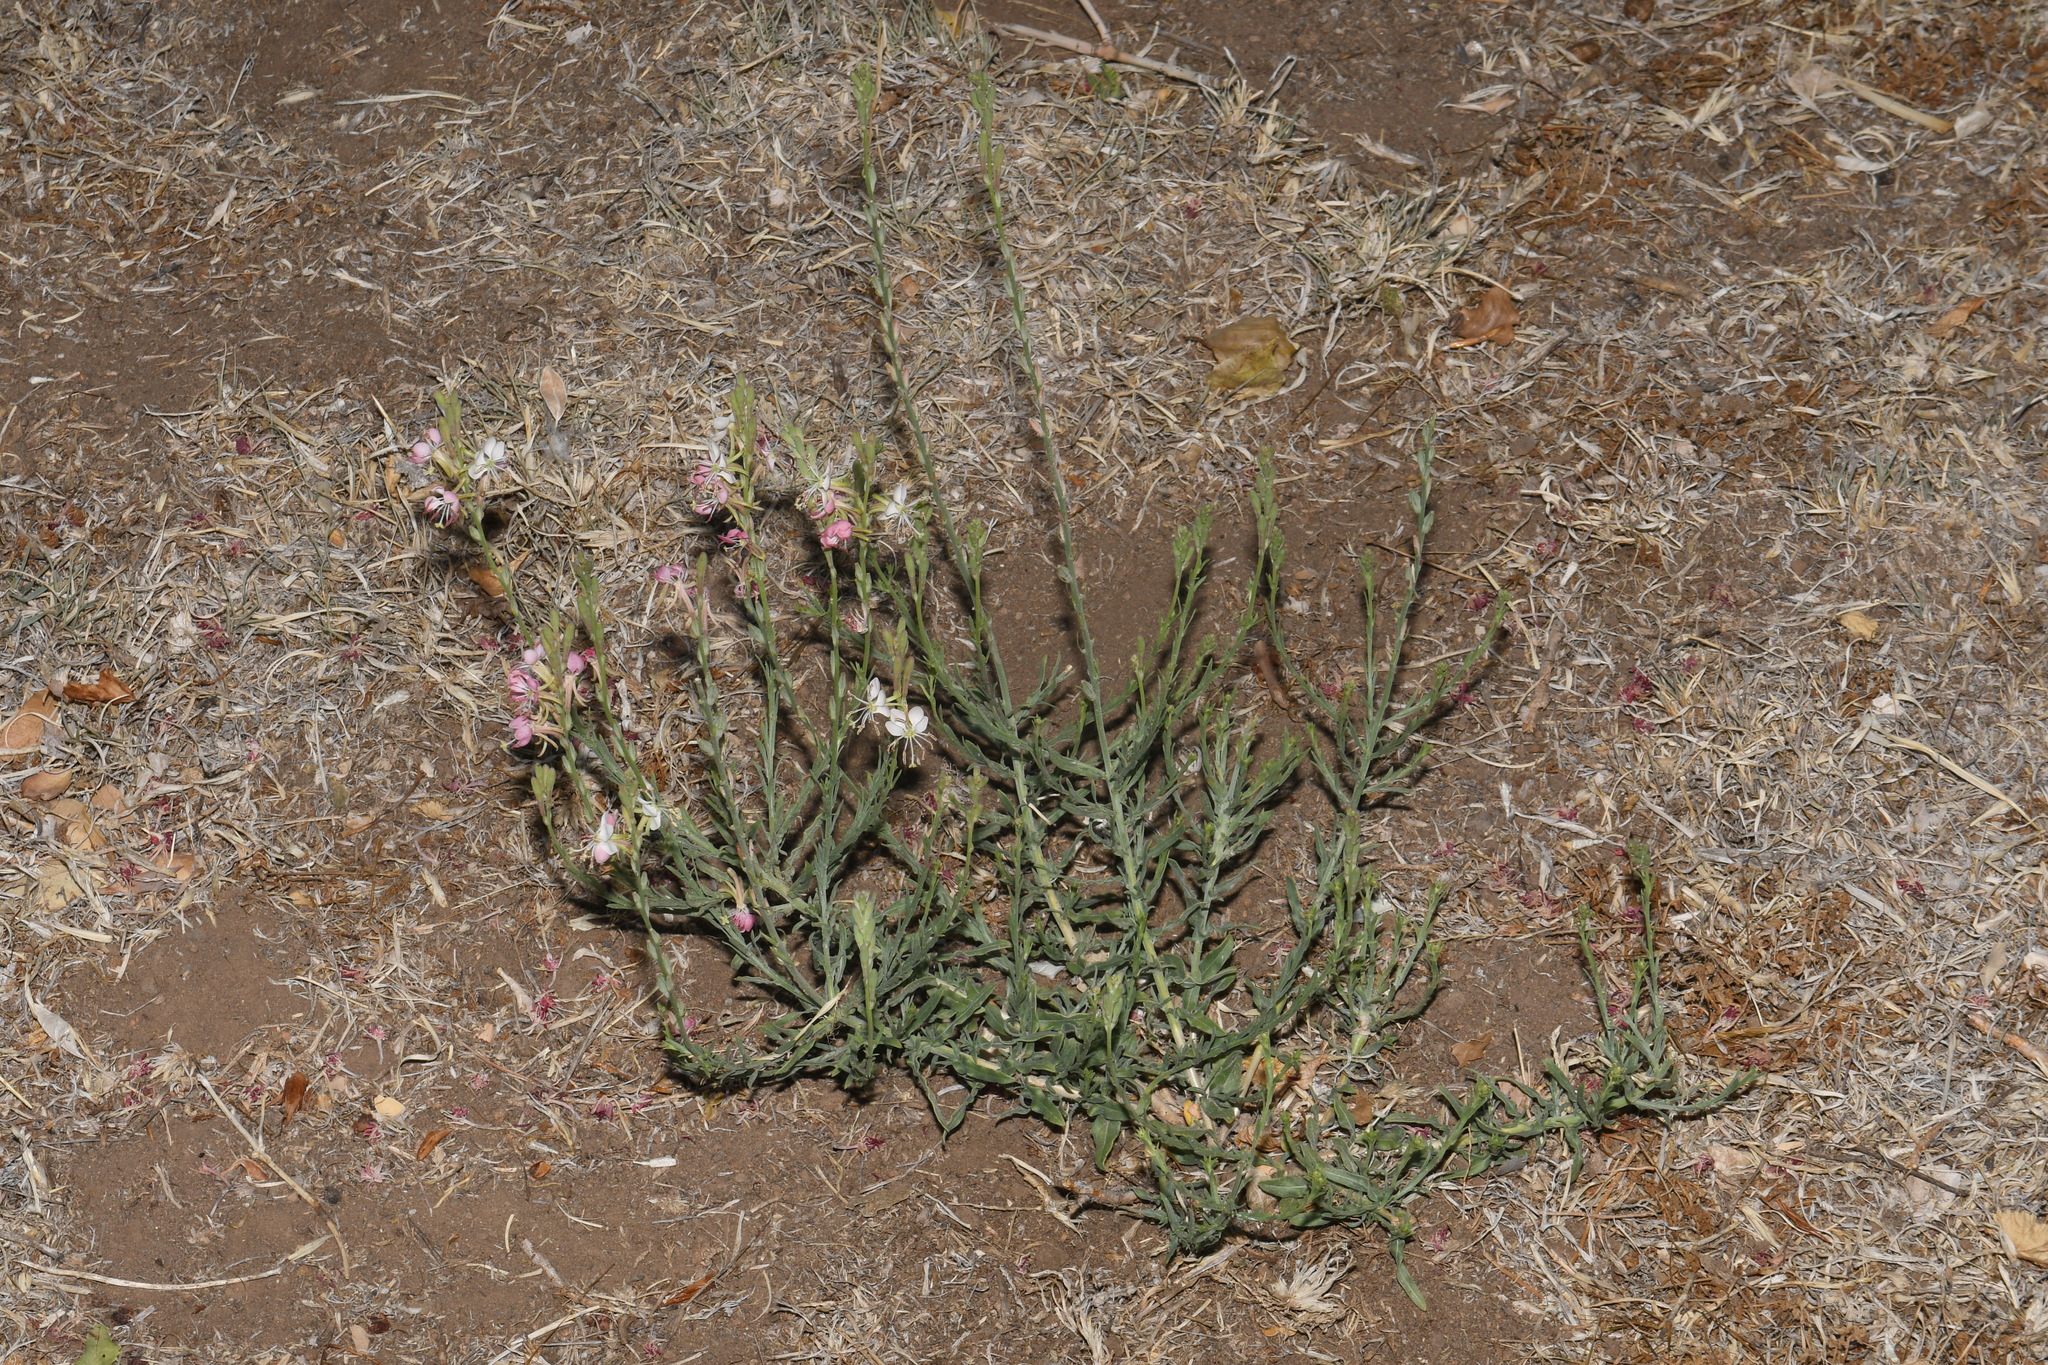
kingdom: Plantae
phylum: Tracheophyta
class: Magnoliopsida
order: Myrtales
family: Onagraceae
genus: Oenothera
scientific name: Oenothera suffrutescens
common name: Scarlet beeblossom
